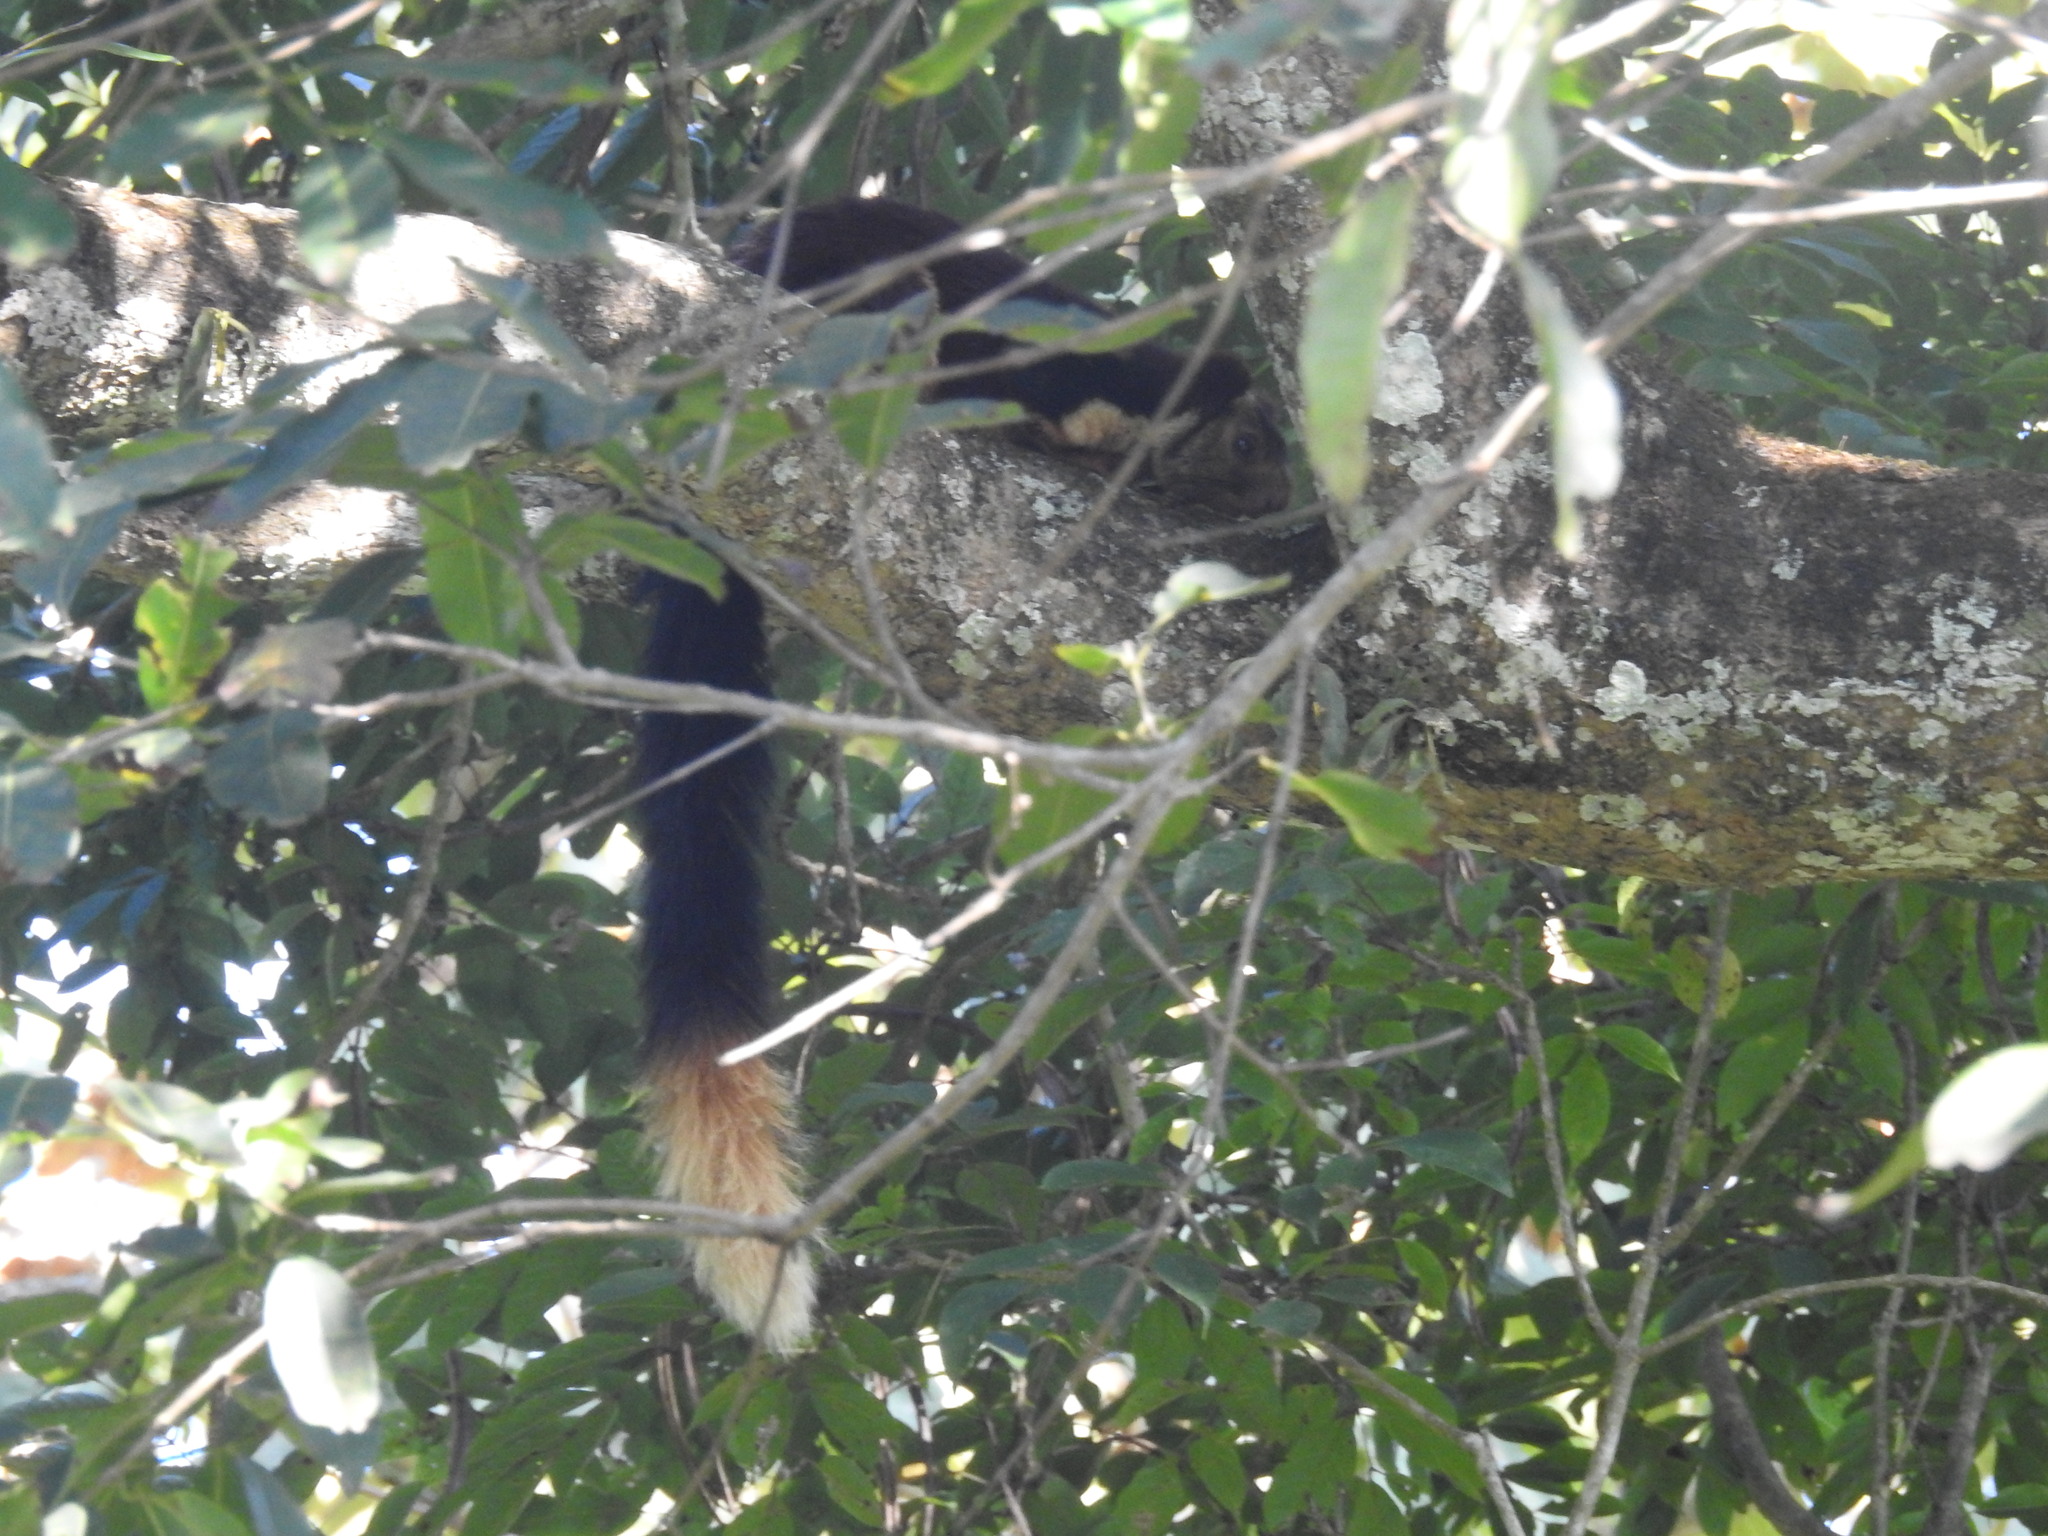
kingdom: Animalia
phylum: Chordata
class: Mammalia
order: Rodentia
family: Sciuridae
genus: Ratufa
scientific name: Ratufa indica
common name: Indian giant squirrel
